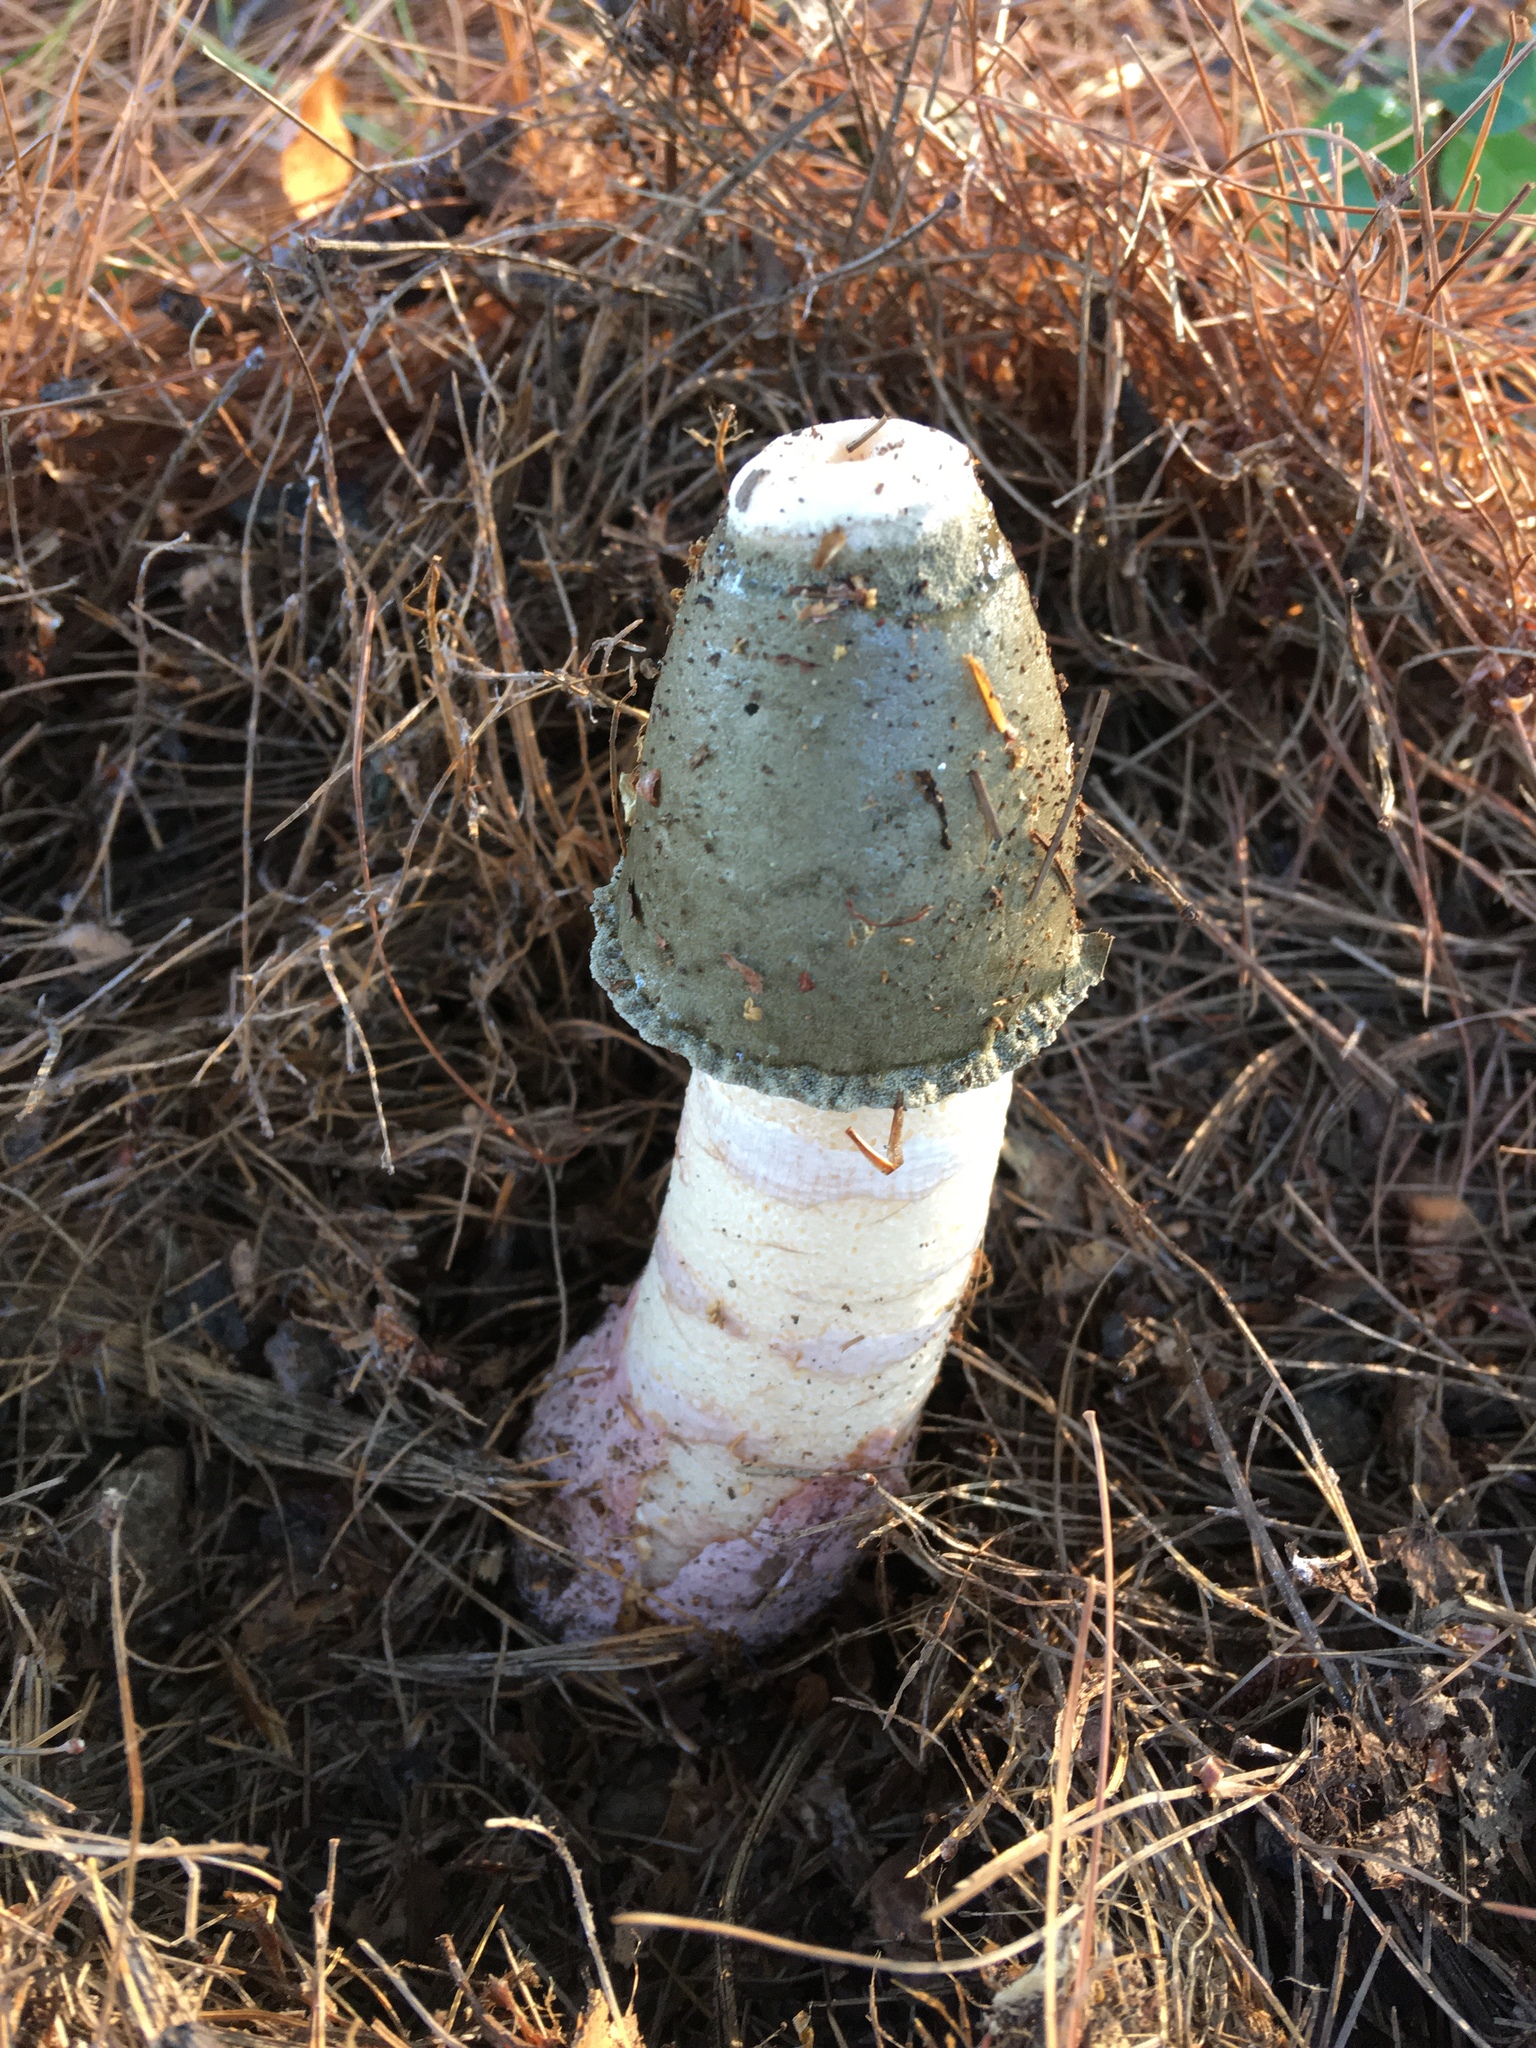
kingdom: Fungi
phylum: Basidiomycota
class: Agaricomycetes
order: Phallales
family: Phallaceae
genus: Phallus
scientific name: Phallus ravenelii
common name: Ravenel's stinkhorn
